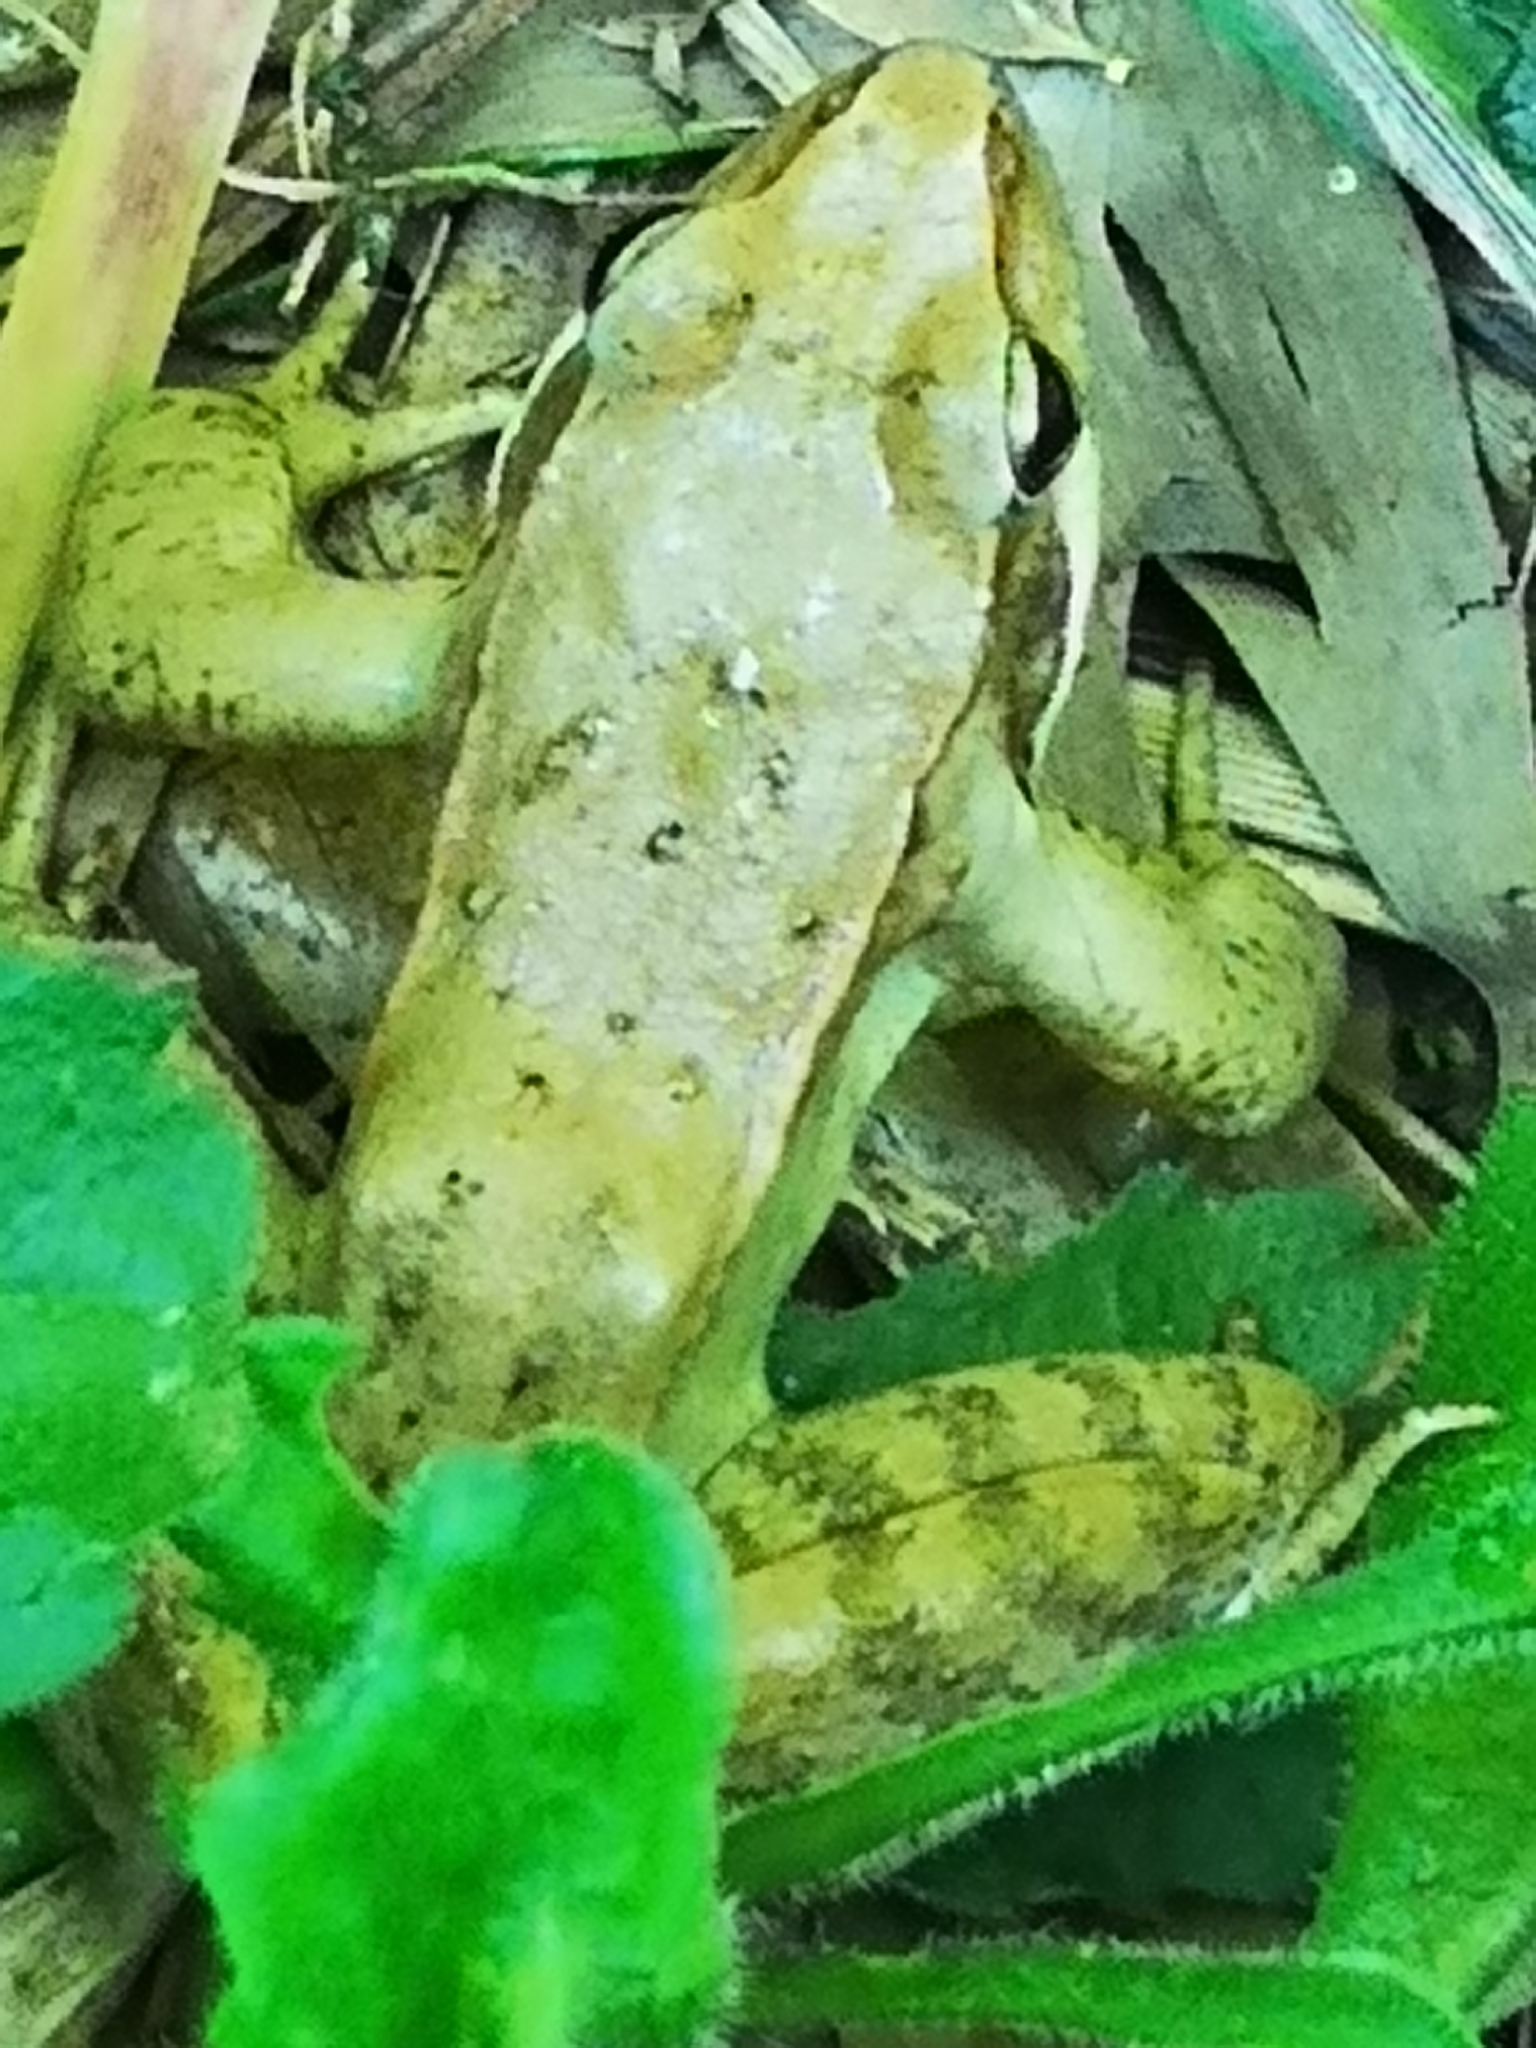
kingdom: Animalia
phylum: Chordata
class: Amphibia
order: Anura
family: Ranidae
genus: Rana
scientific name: Rana latastei
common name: Italian agile frog
